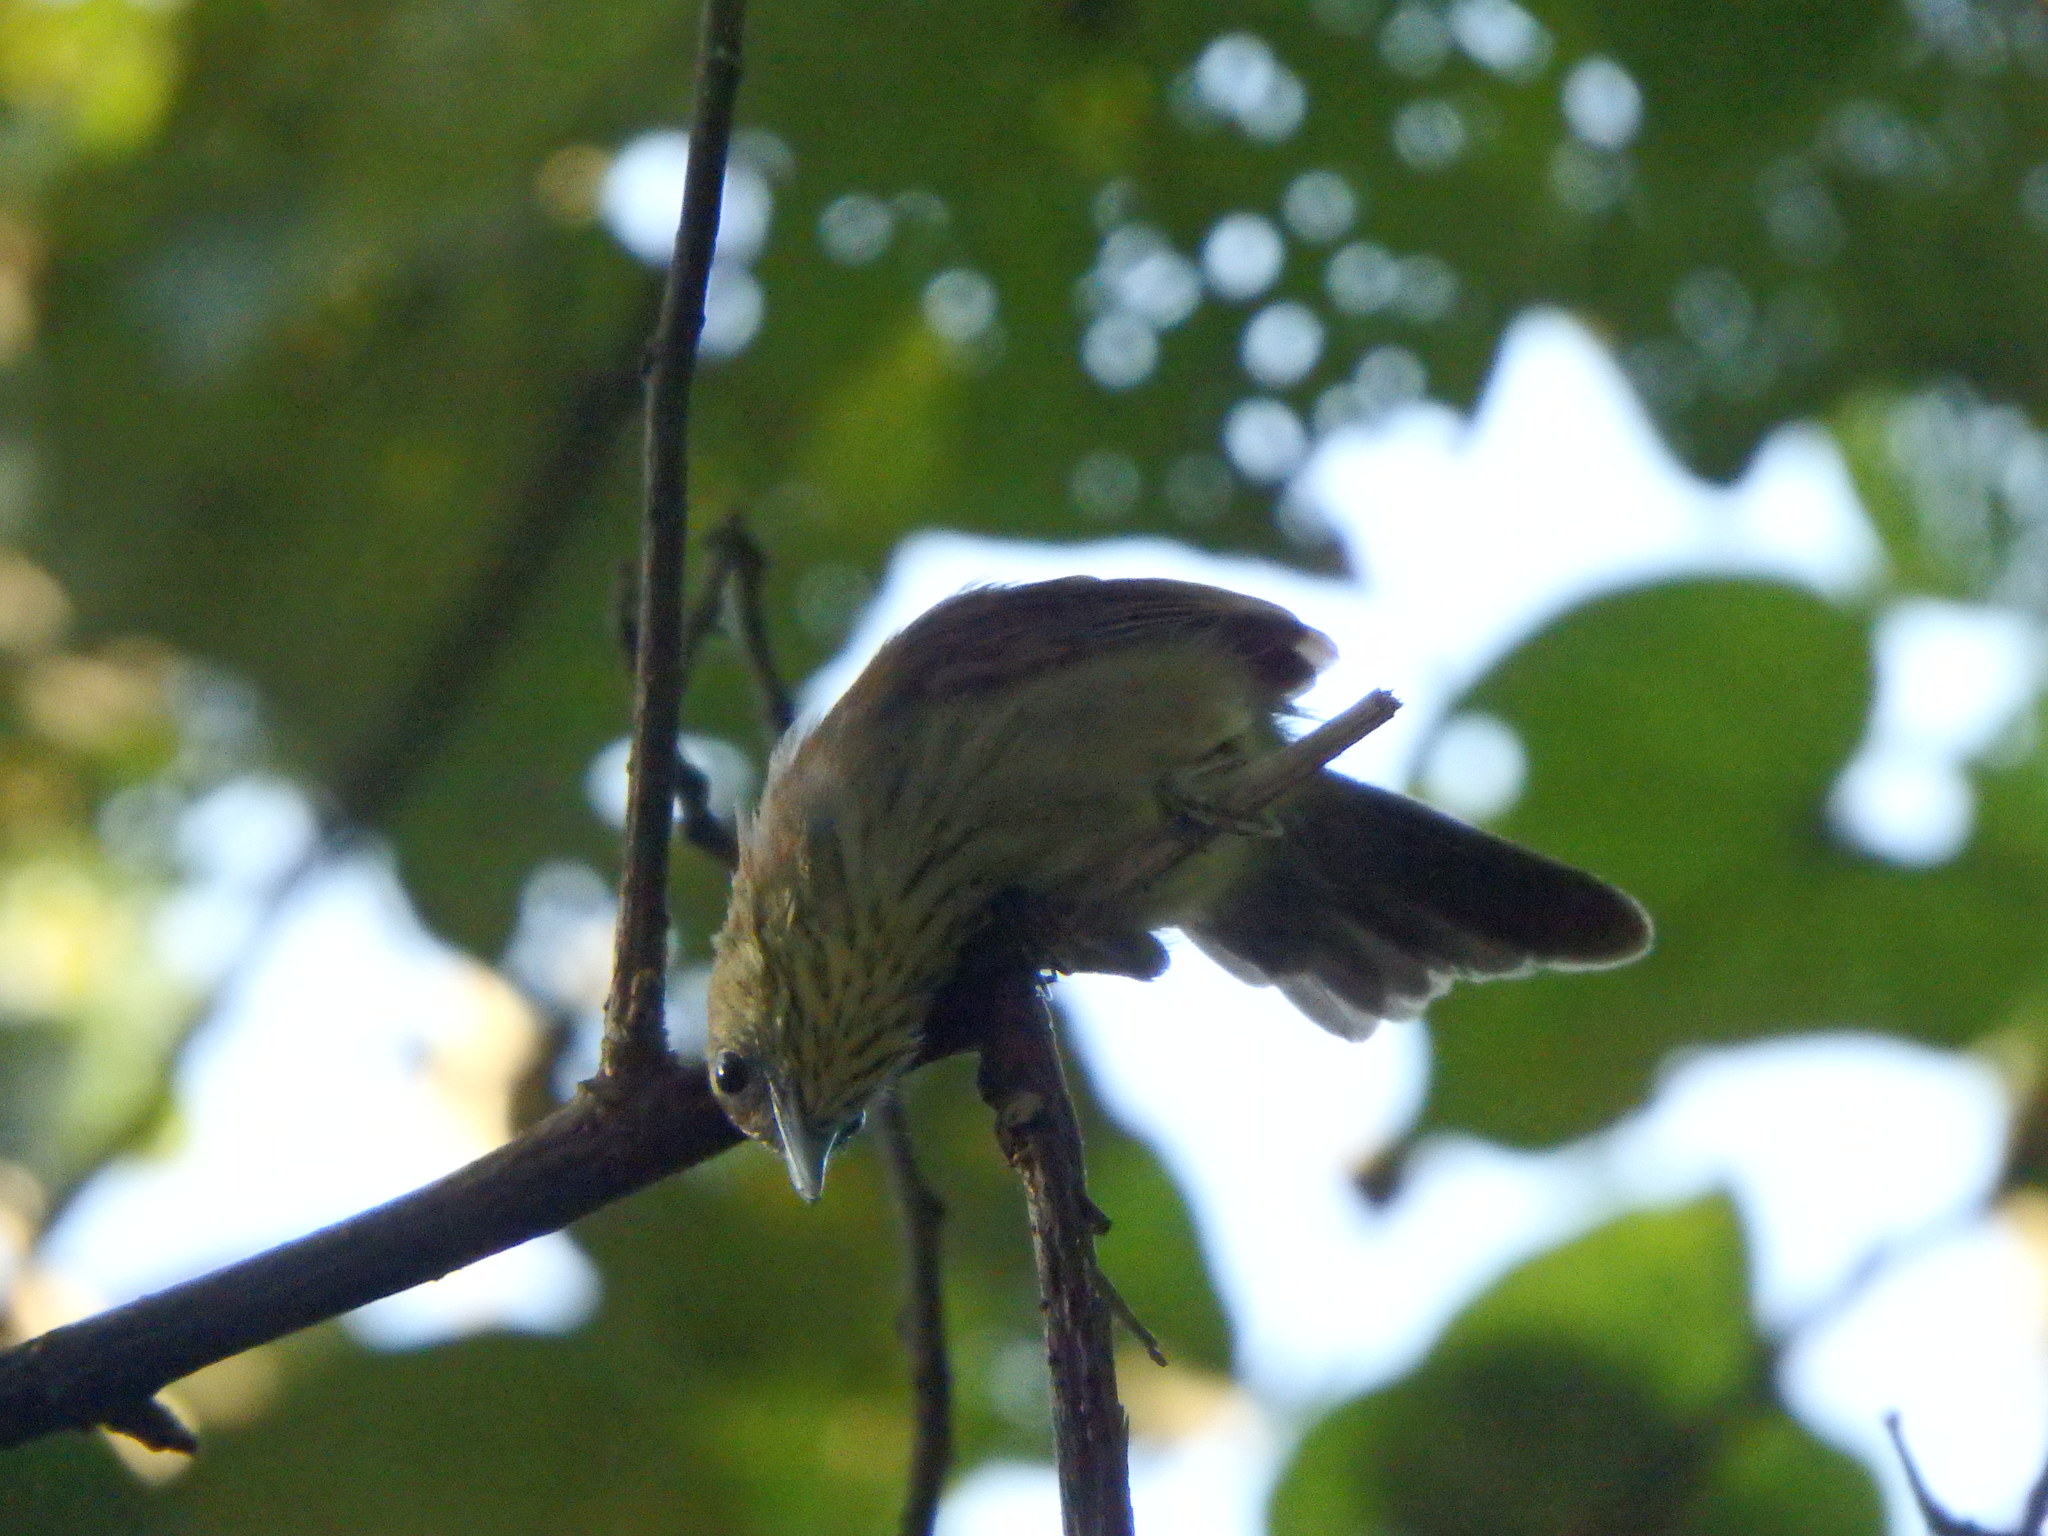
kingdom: Animalia
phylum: Chordata
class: Aves
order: Passeriformes
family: Timaliidae
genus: Macronus
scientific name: Macronus gularis
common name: Striped tit-babbler
